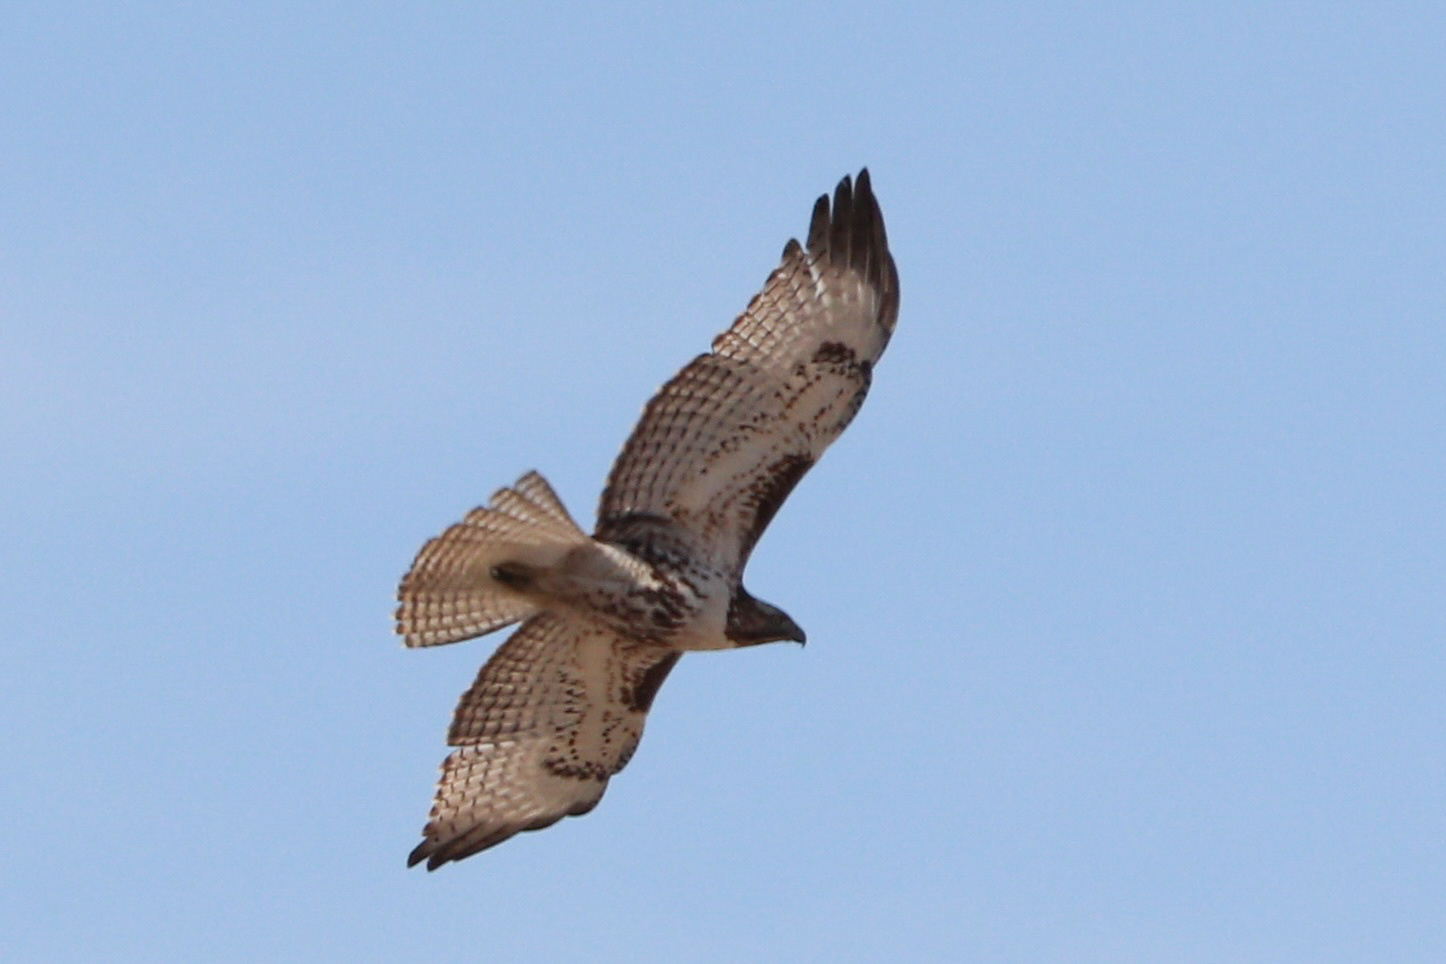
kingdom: Animalia
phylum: Chordata
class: Aves
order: Accipitriformes
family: Accipitridae
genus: Buteo
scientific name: Buteo jamaicensis
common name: Red-tailed hawk
